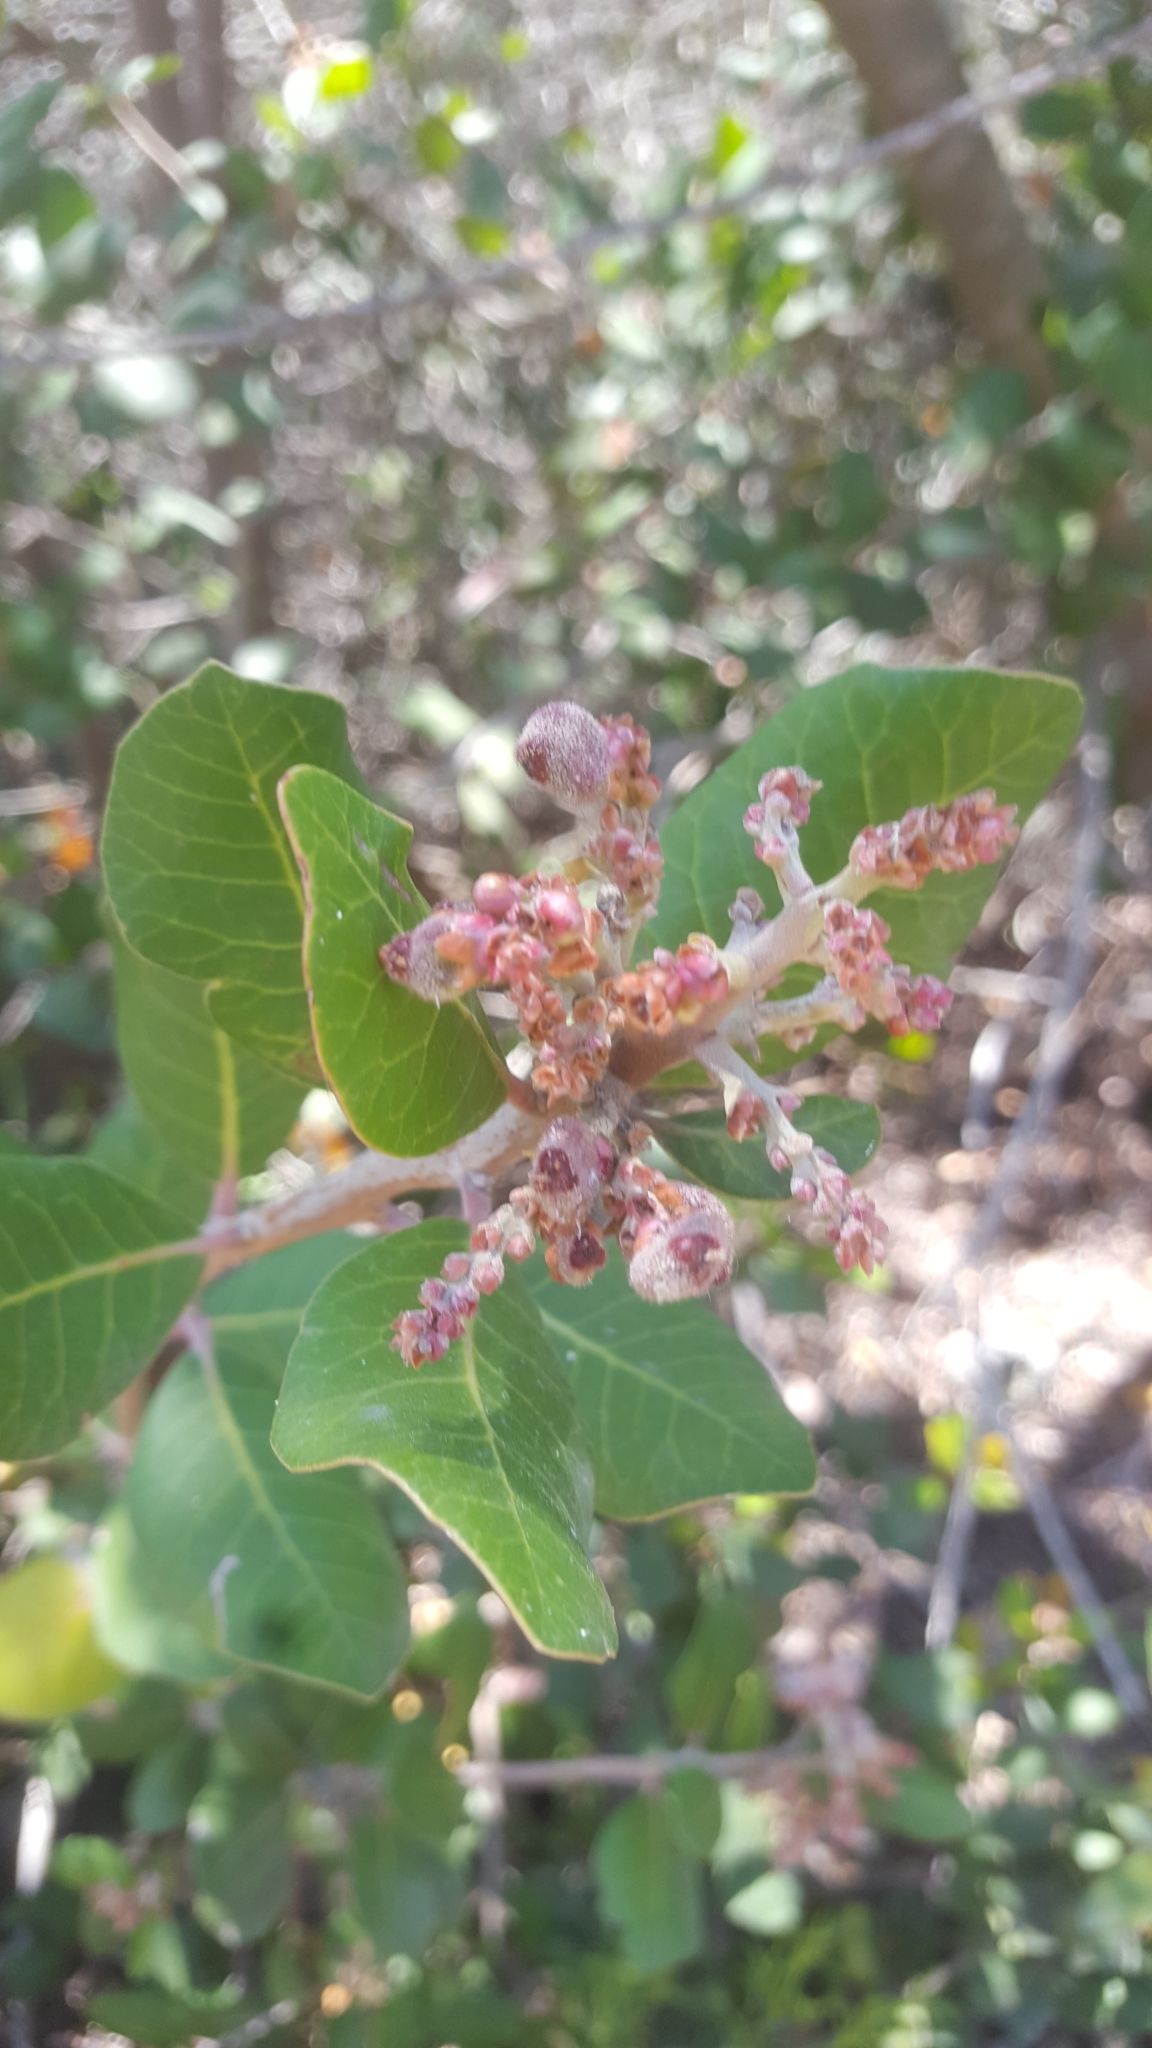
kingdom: Plantae
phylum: Tracheophyta
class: Magnoliopsida
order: Sapindales
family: Anacardiaceae
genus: Rhus
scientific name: Rhus integrifolia
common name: Lemonade sumac
